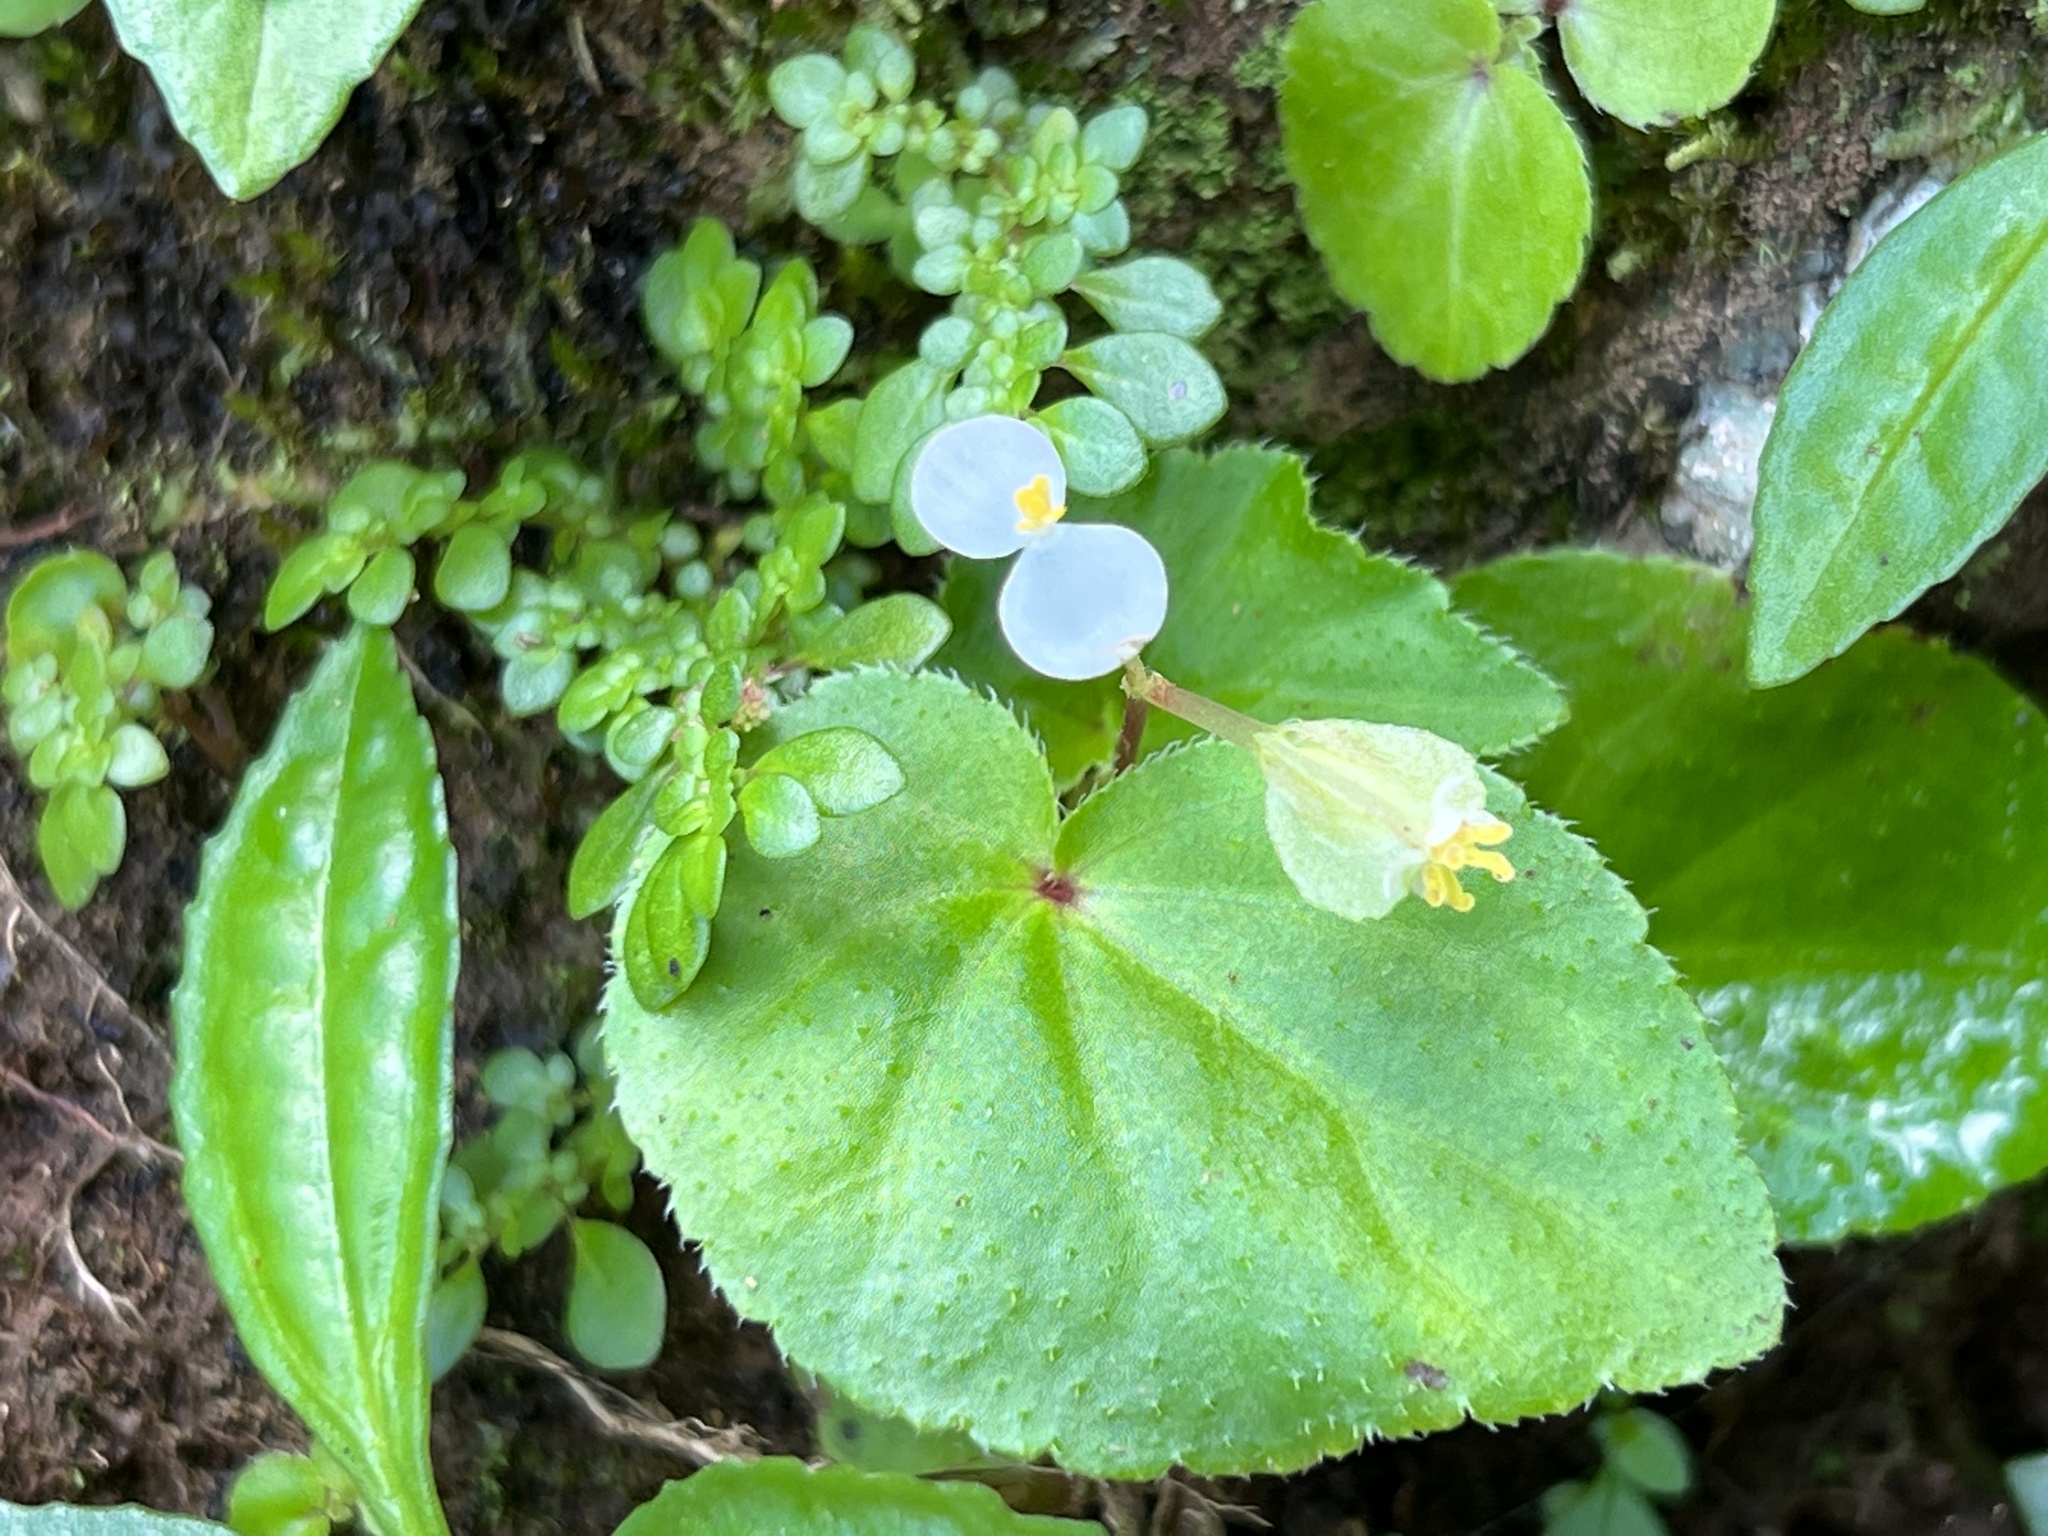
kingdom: Plantae
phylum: Tracheophyta
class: Magnoliopsida
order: Cucurbitales
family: Begoniaceae
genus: Begonia
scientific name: Begonia hirtella
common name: Brazilian begonia
